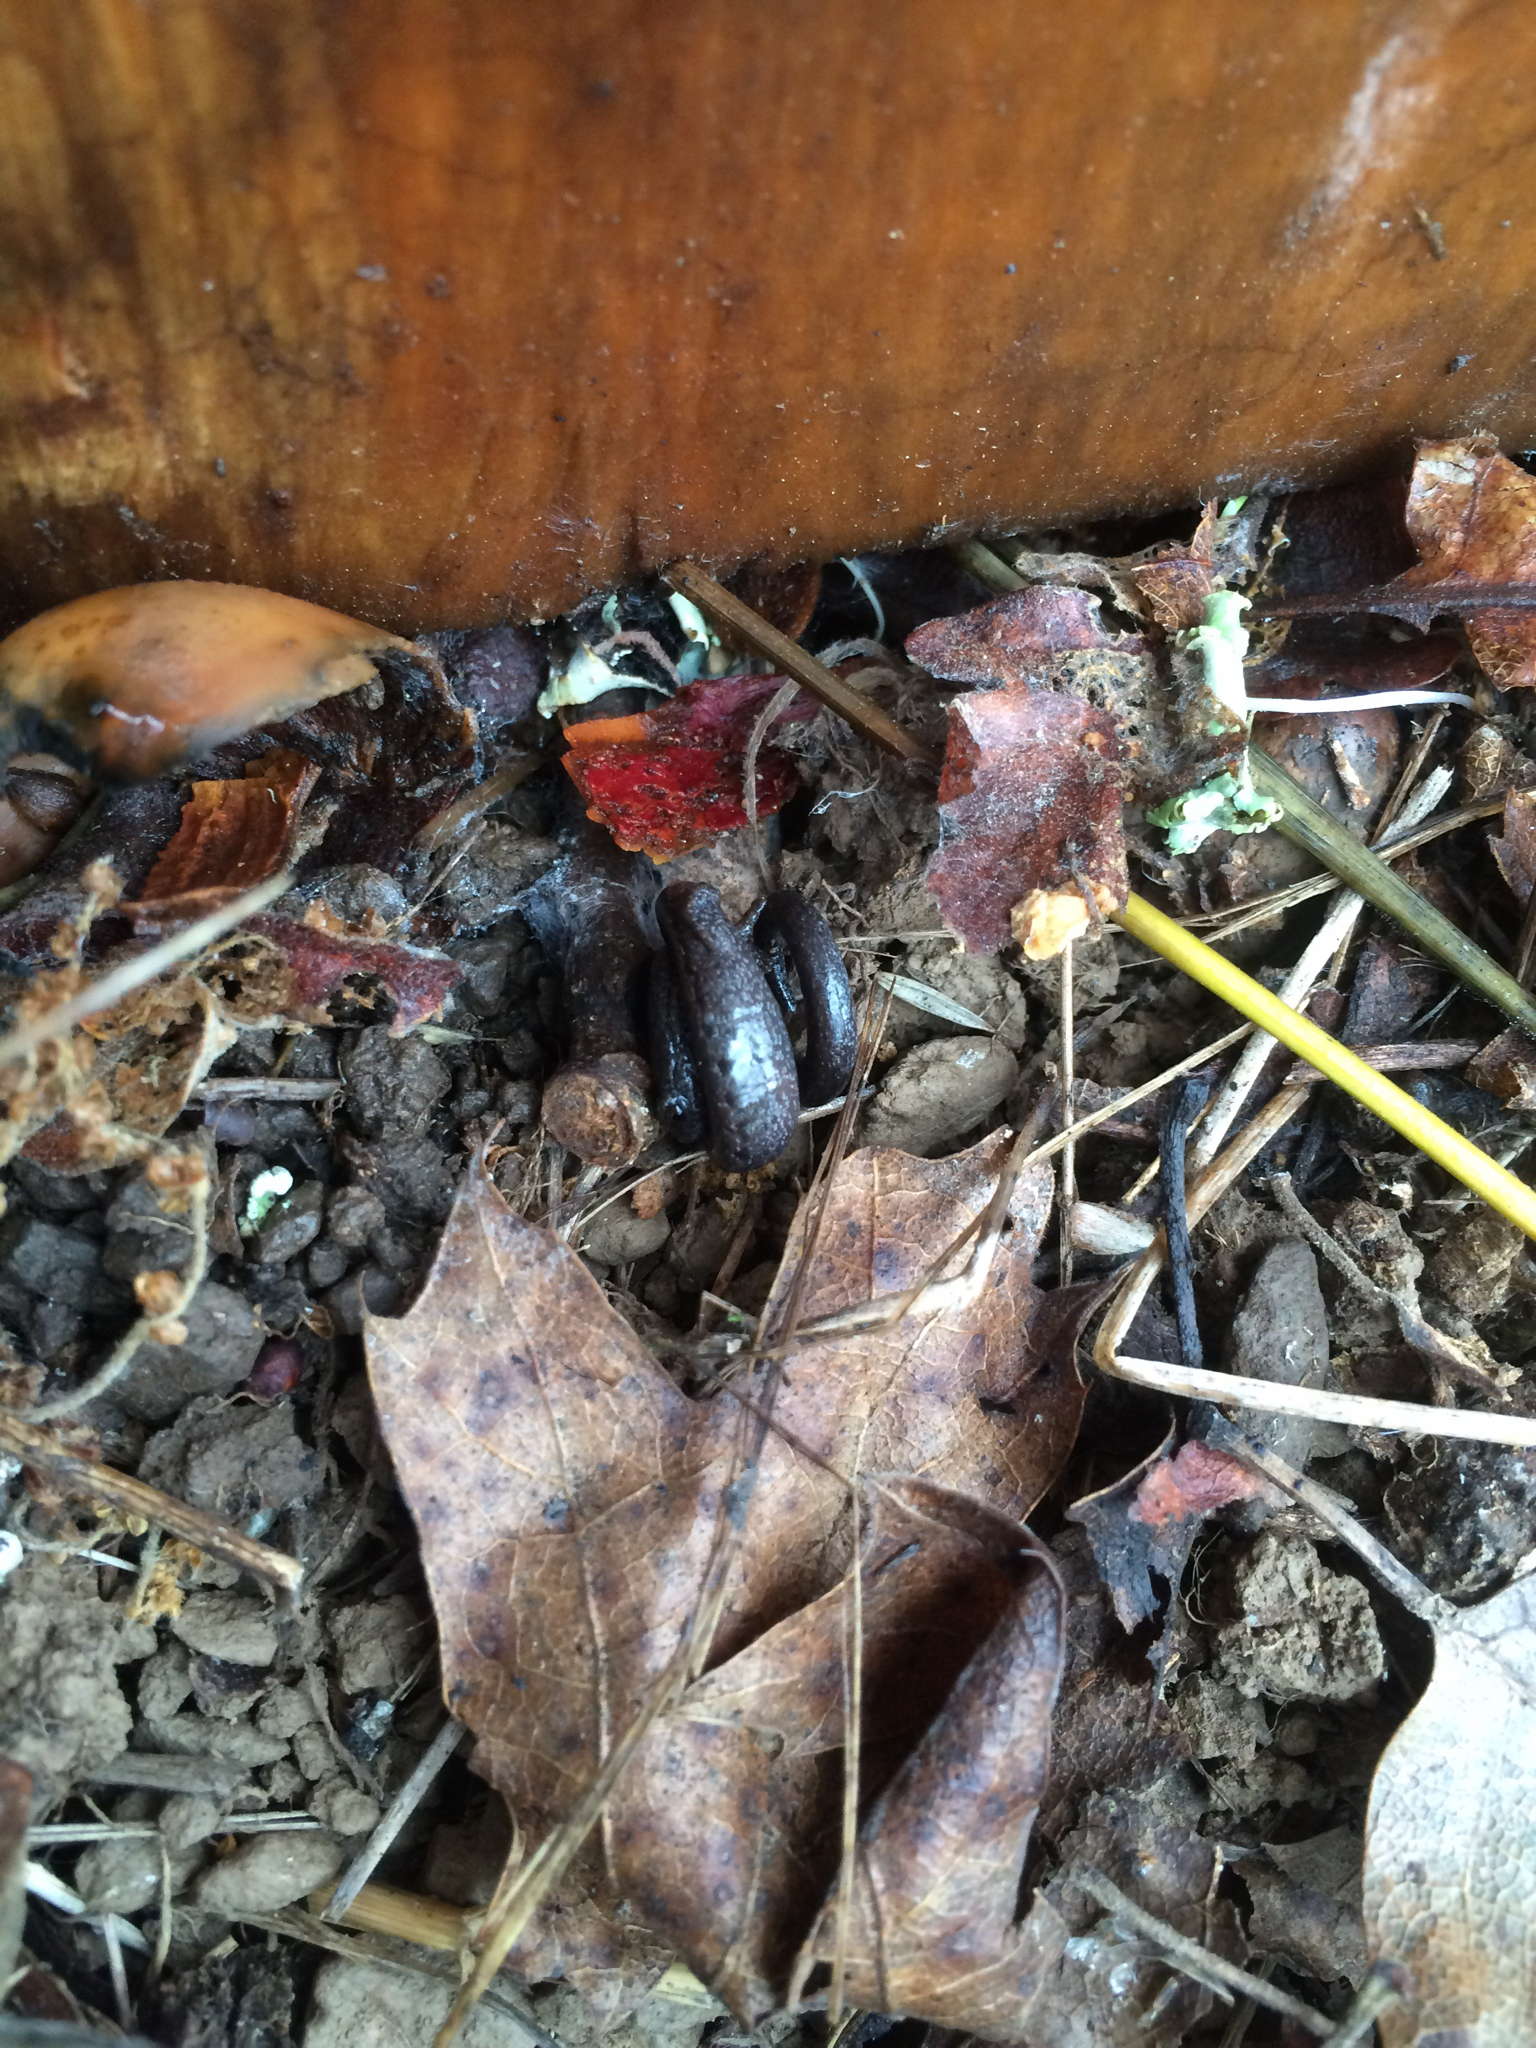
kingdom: Animalia
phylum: Chordata
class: Amphibia
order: Caudata
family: Plethodontidae
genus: Batrachoseps
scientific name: Batrachoseps attenuatus
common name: California slender salamander
